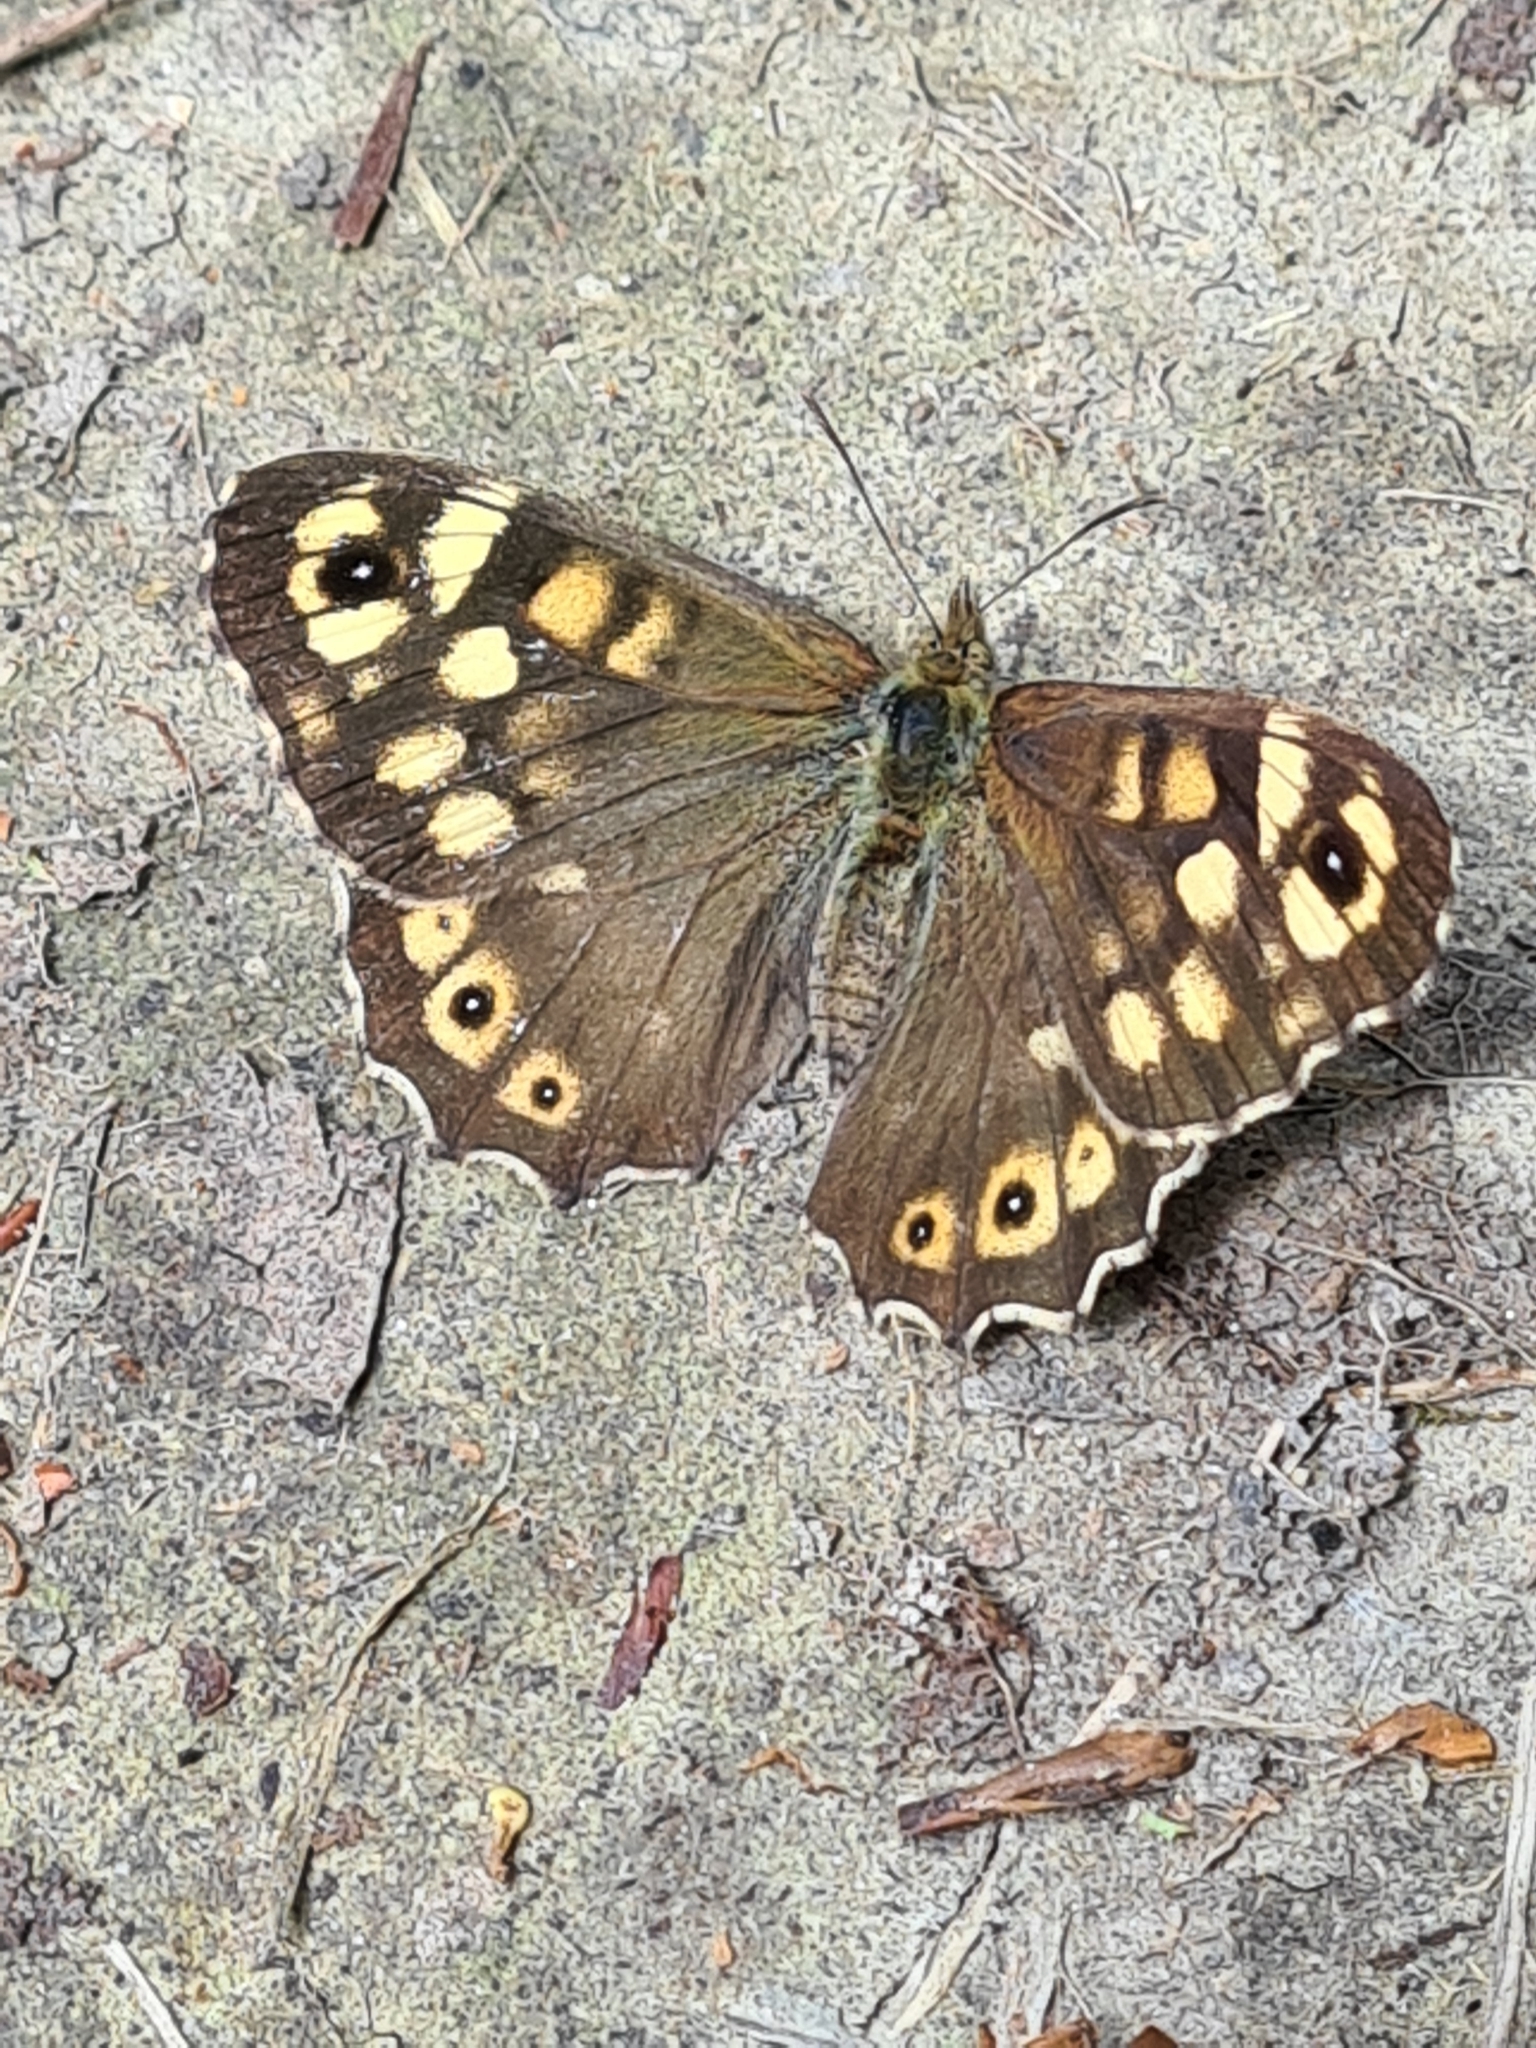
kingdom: Animalia
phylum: Arthropoda
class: Insecta
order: Lepidoptera
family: Nymphalidae
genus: Pararge
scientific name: Pararge aegeria
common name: Speckled wood
